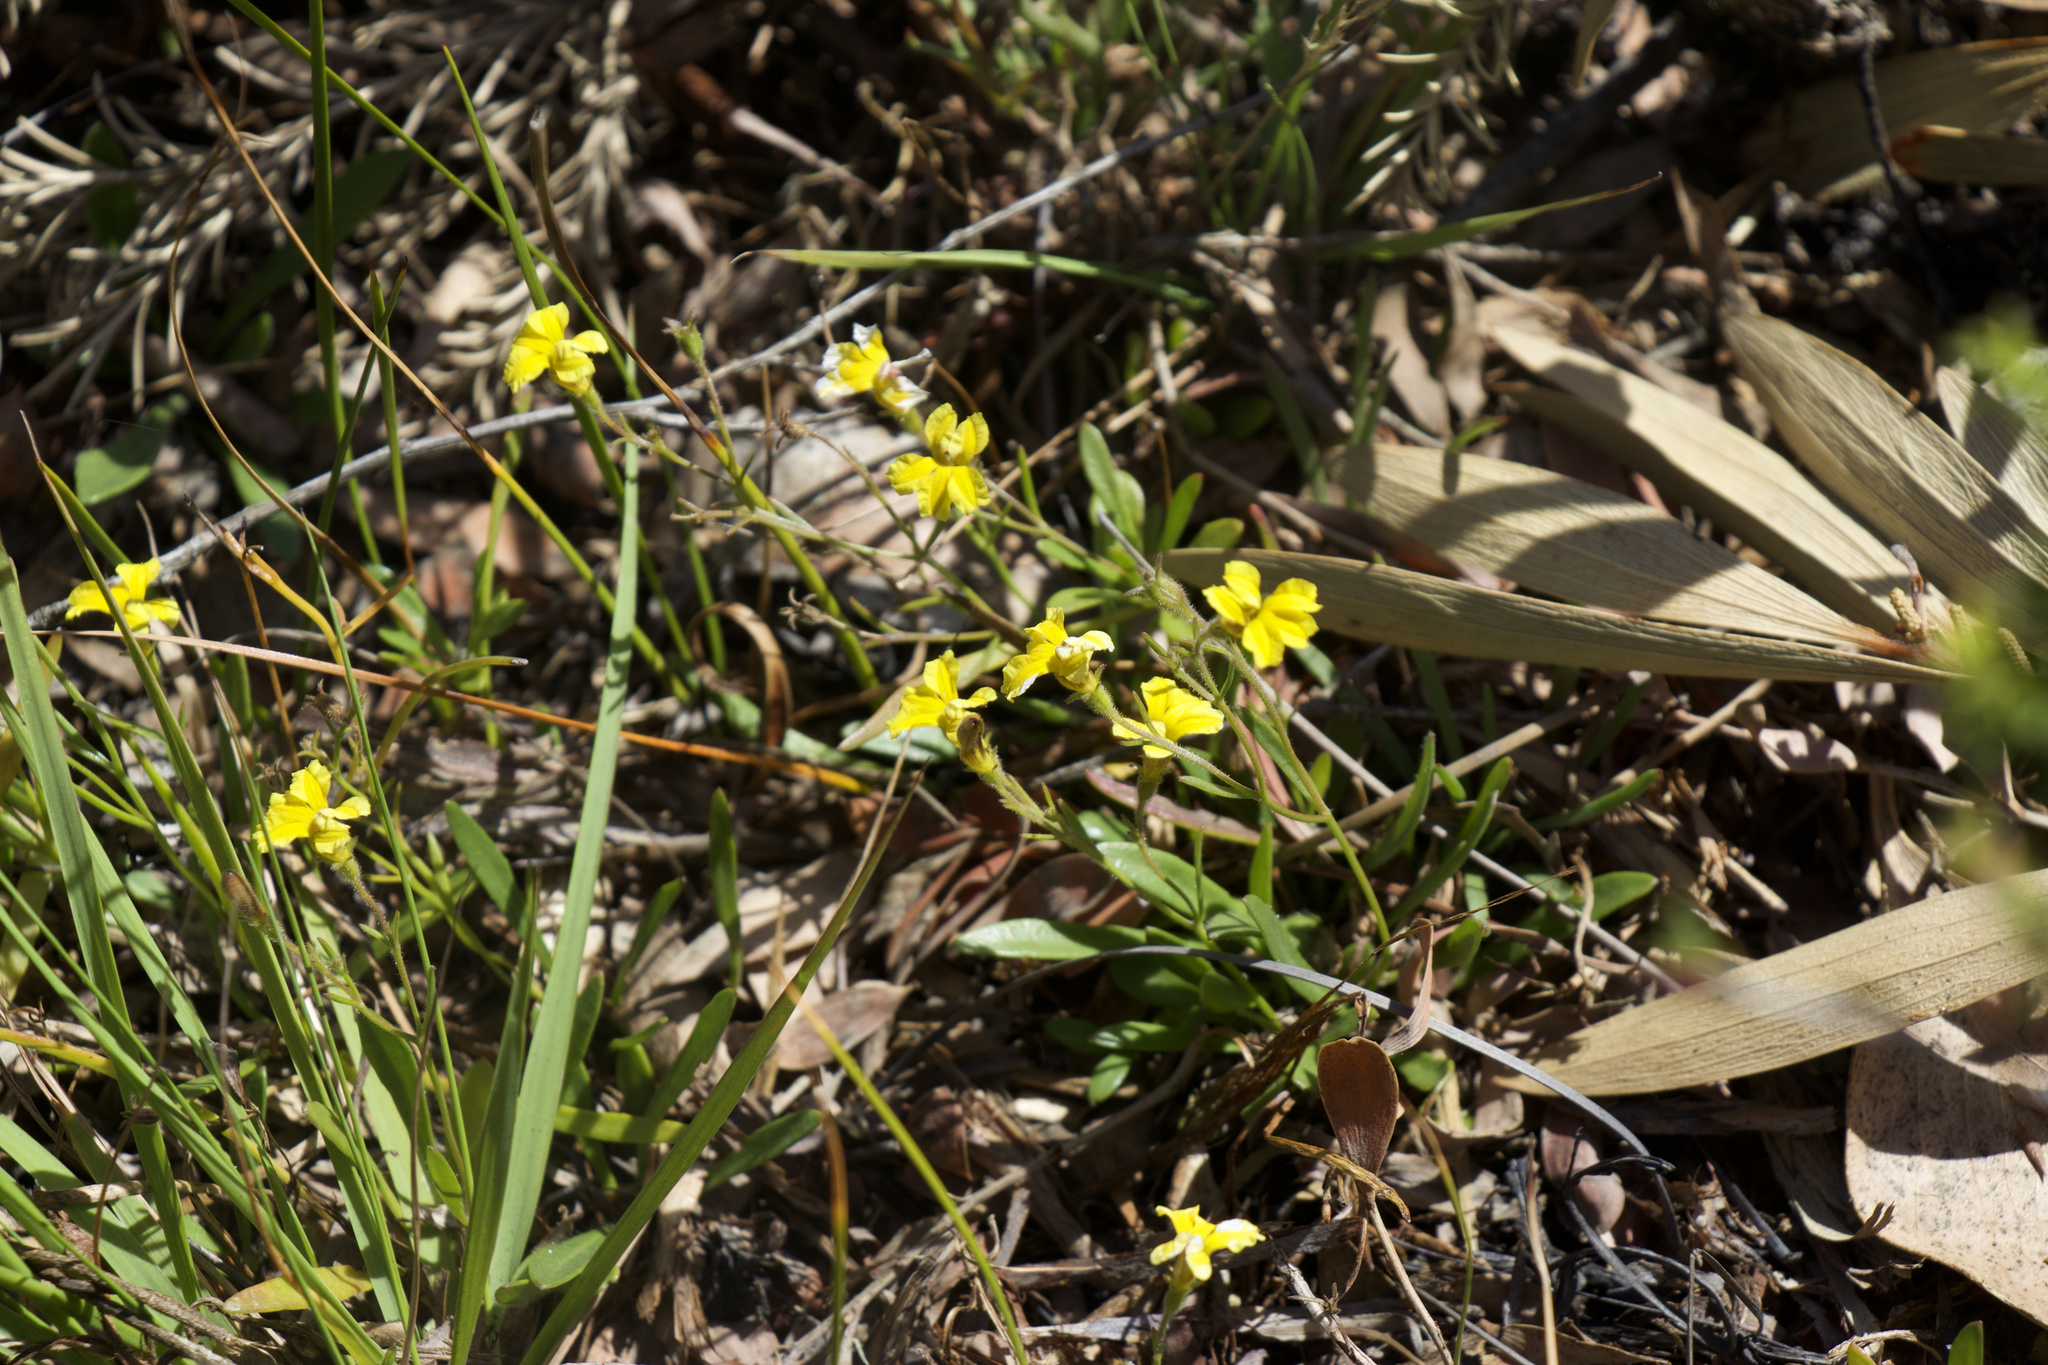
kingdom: Plantae
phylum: Tracheophyta
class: Magnoliopsida
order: Asterales
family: Goodeniaceae
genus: Goodenia
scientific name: Goodenia humilis
